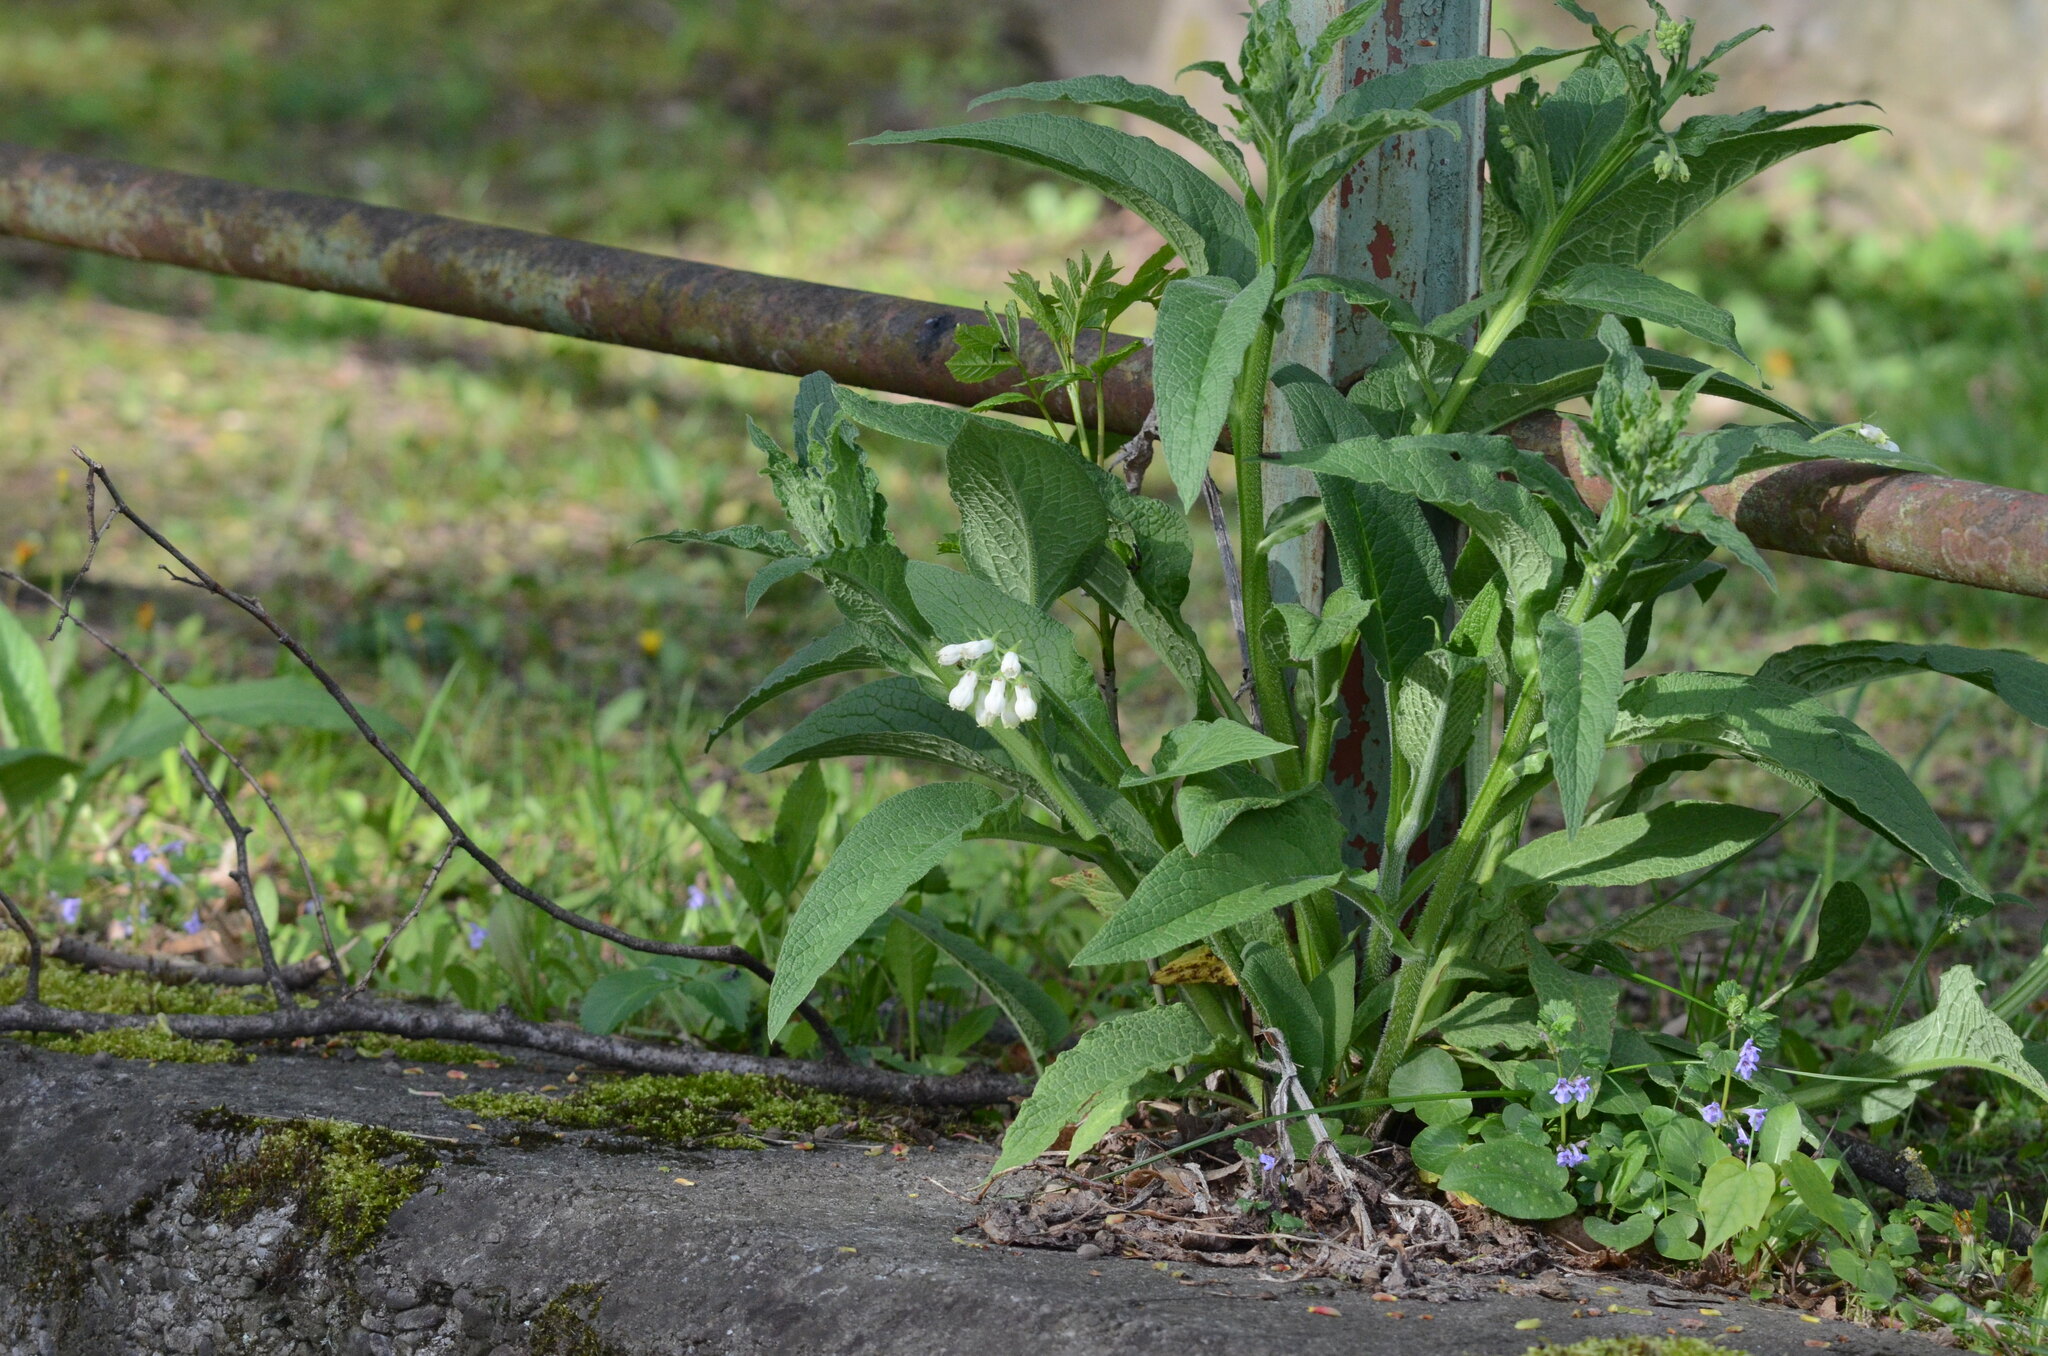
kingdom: Plantae
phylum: Tracheophyta
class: Magnoliopsida
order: Boraginales
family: Boraginaceae
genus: Symphytum
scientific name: Symphytum tuberosum
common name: Tuberous comfrey
